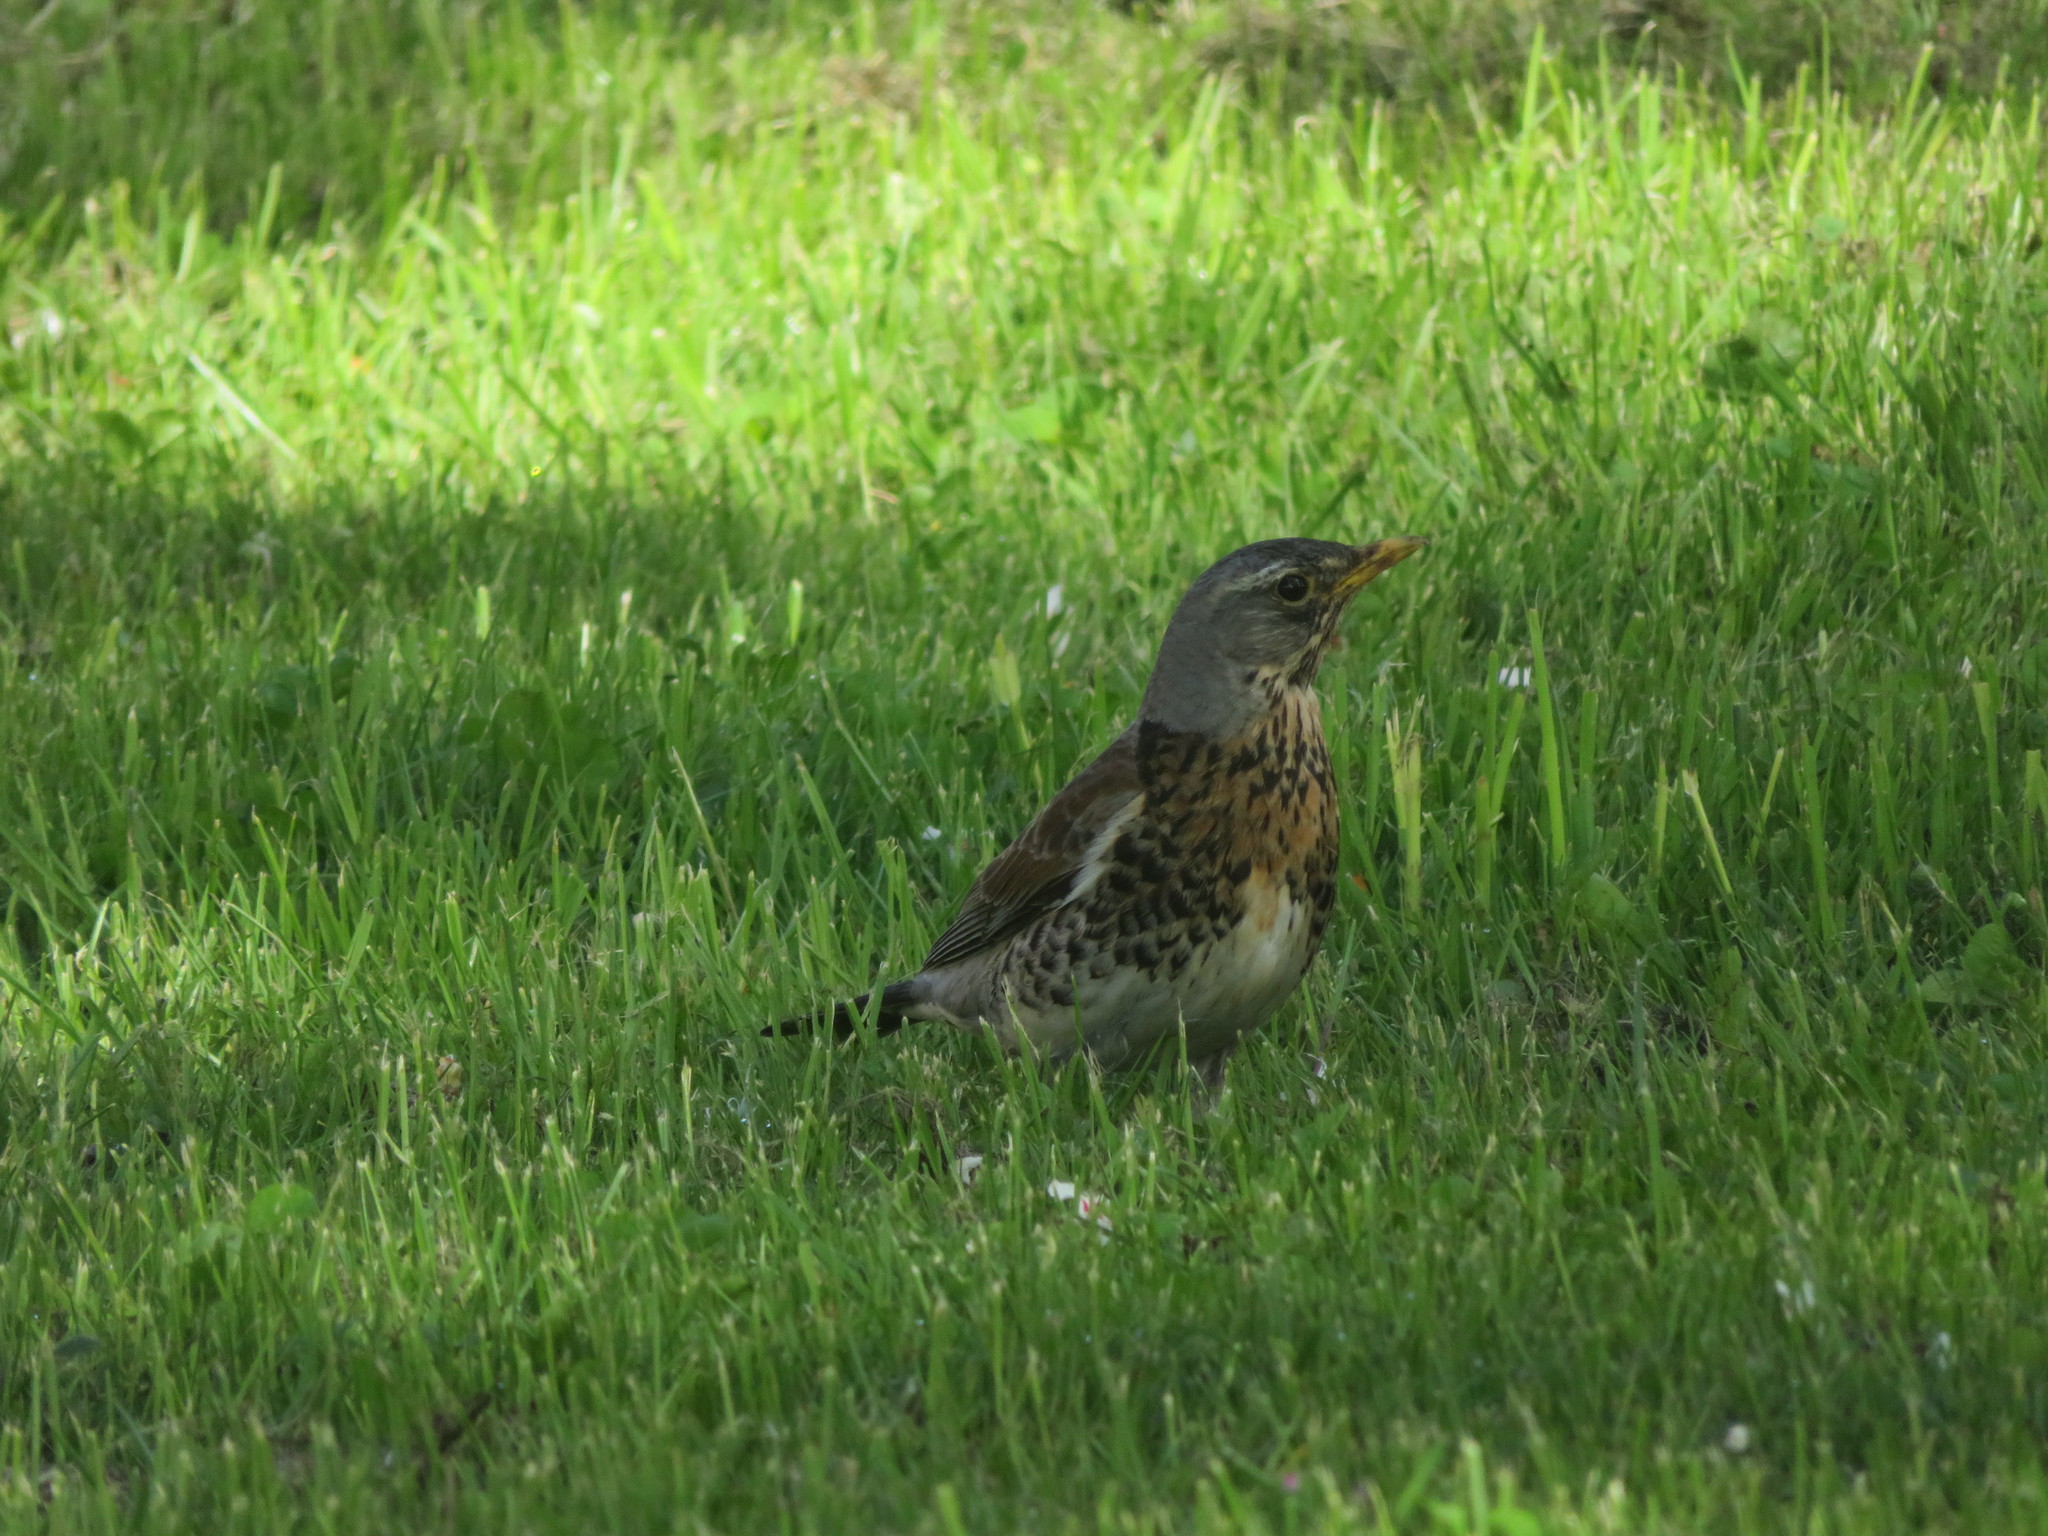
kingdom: Animalia
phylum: Chordata
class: Aves
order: Passeriformes
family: Turdidae
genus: Turdus
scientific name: Turdus pilaris
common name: Fieldfare
